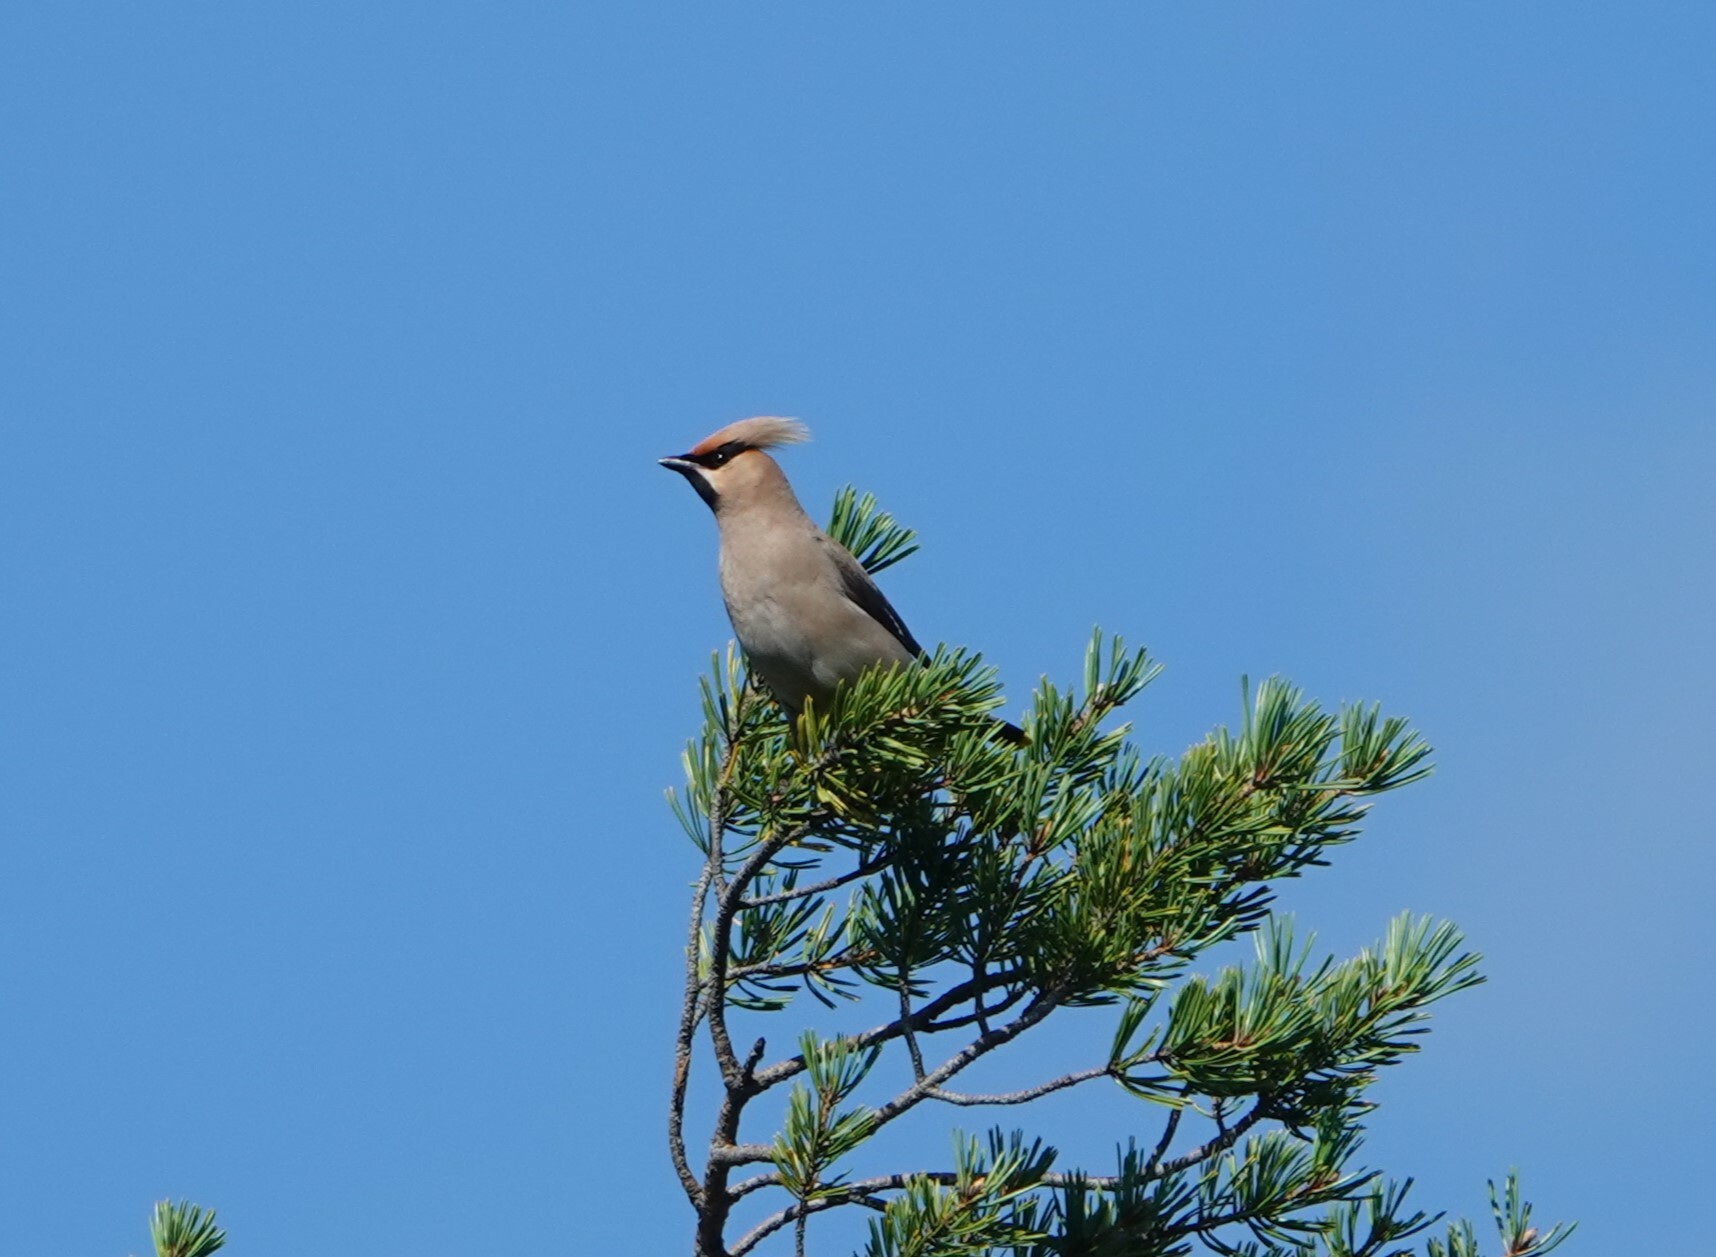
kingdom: Animalia
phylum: Chordata
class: Aves
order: Passeriformes
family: Bombycillidae
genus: Bombycilla
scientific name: Bombycilla garrulus
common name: Bohemian waxwing
